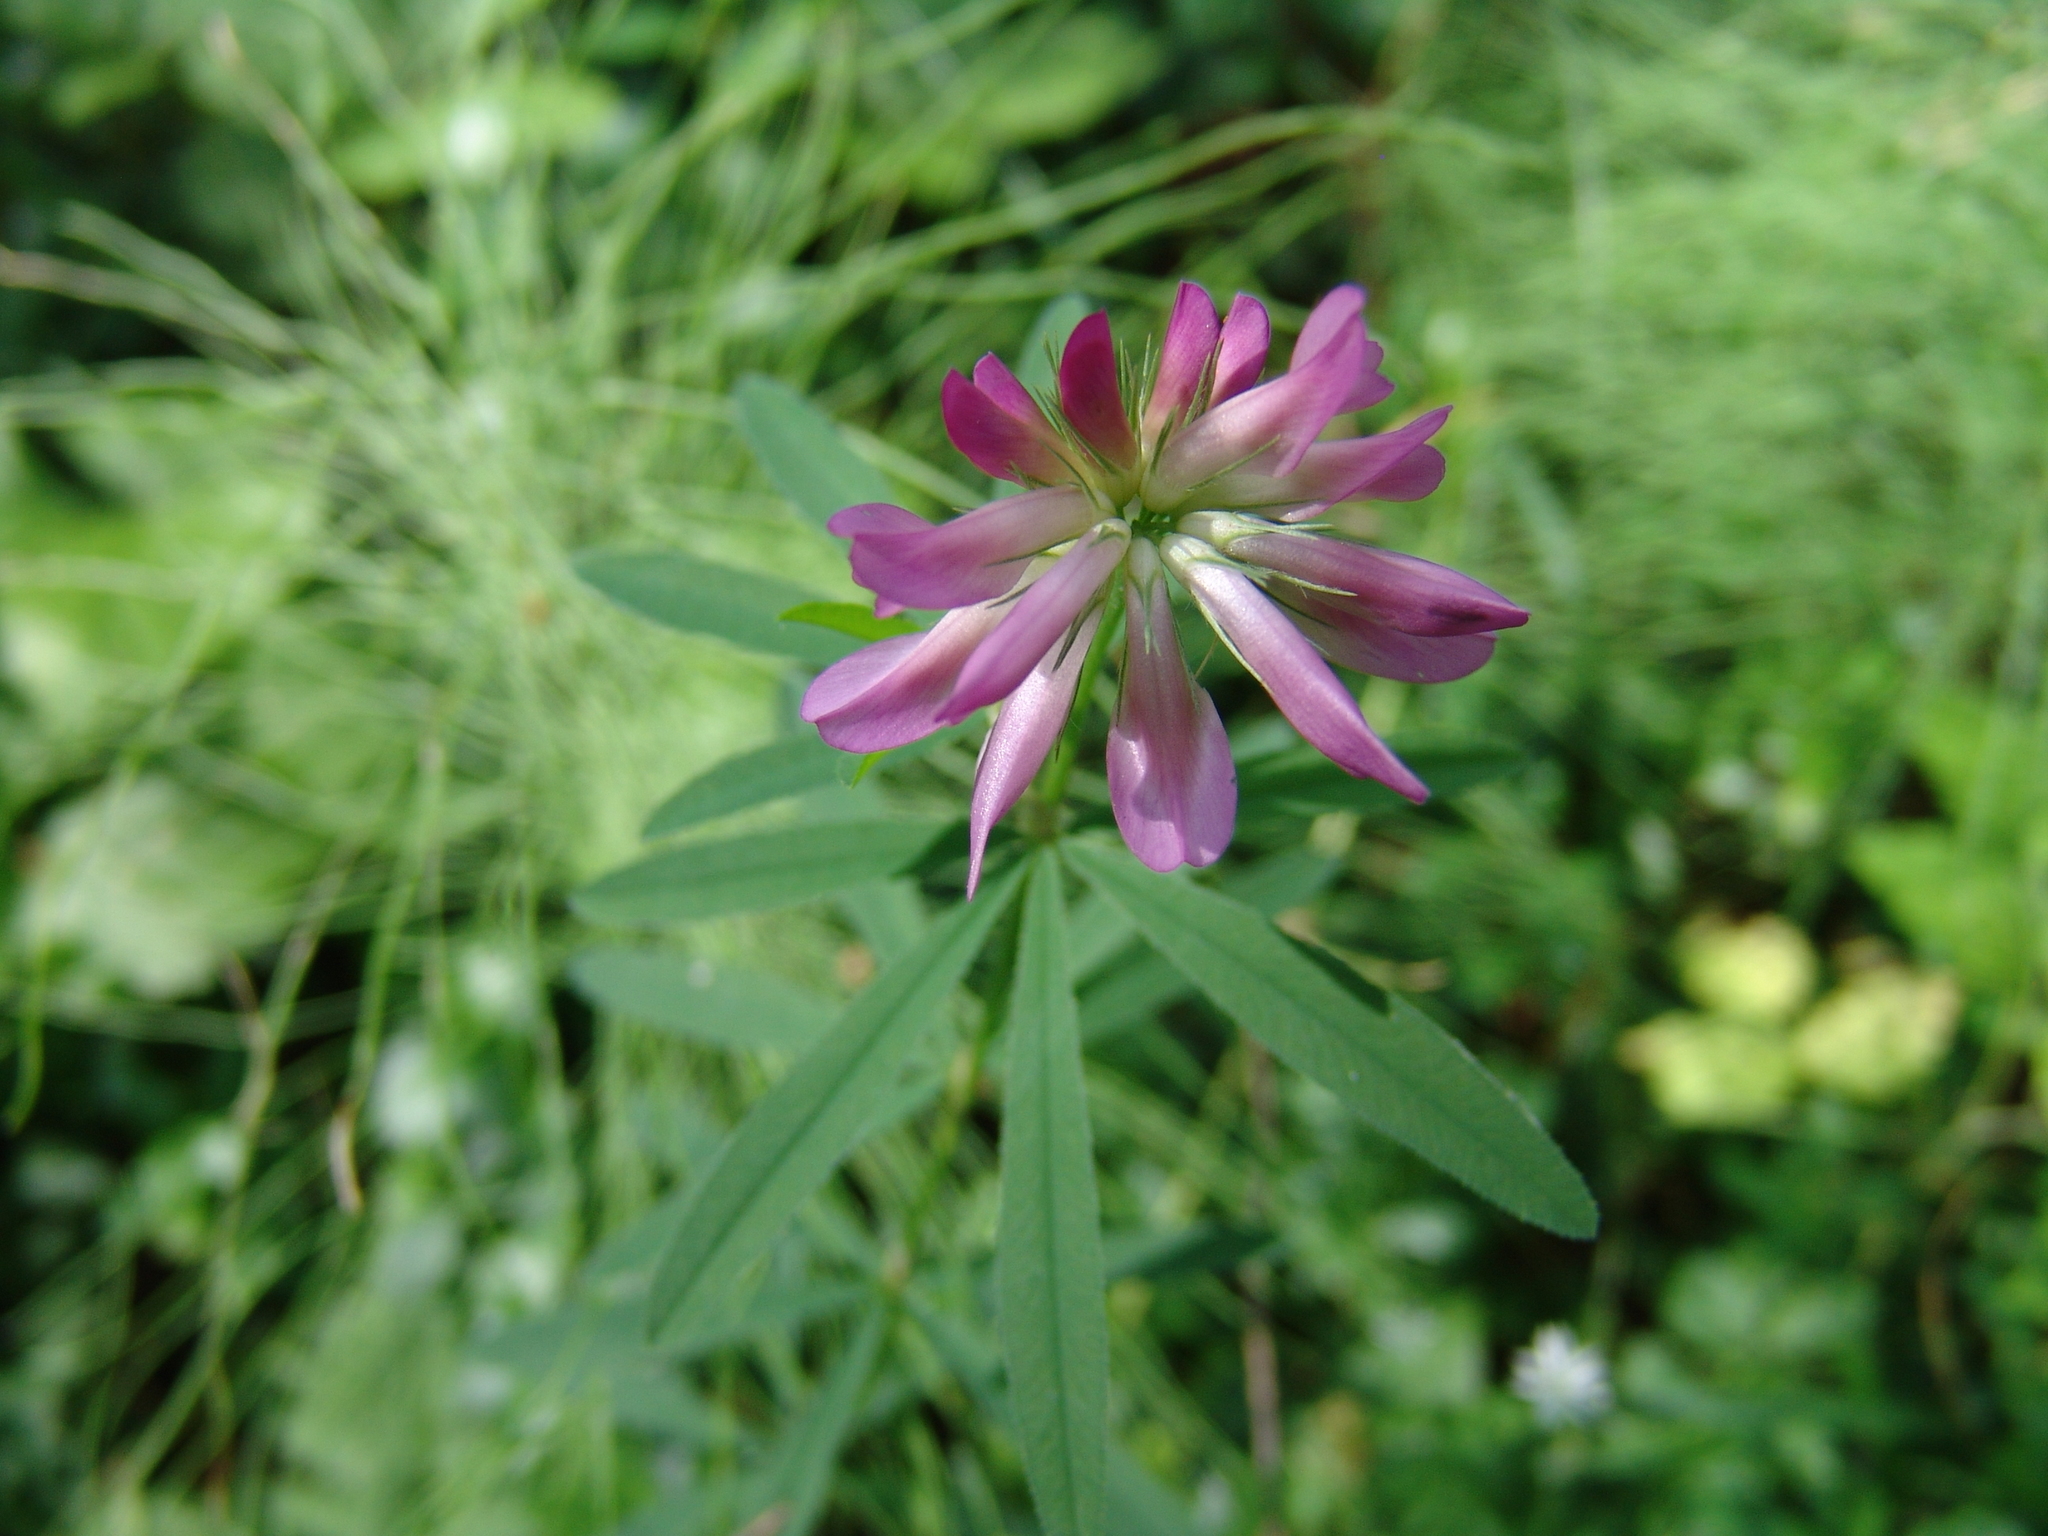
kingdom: Plantae
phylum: Tracheophyta
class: Magnoliopsida
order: Fabales
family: Fabaceae
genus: Trifolium
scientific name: Trifolium lupinaster
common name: Lupine clover
